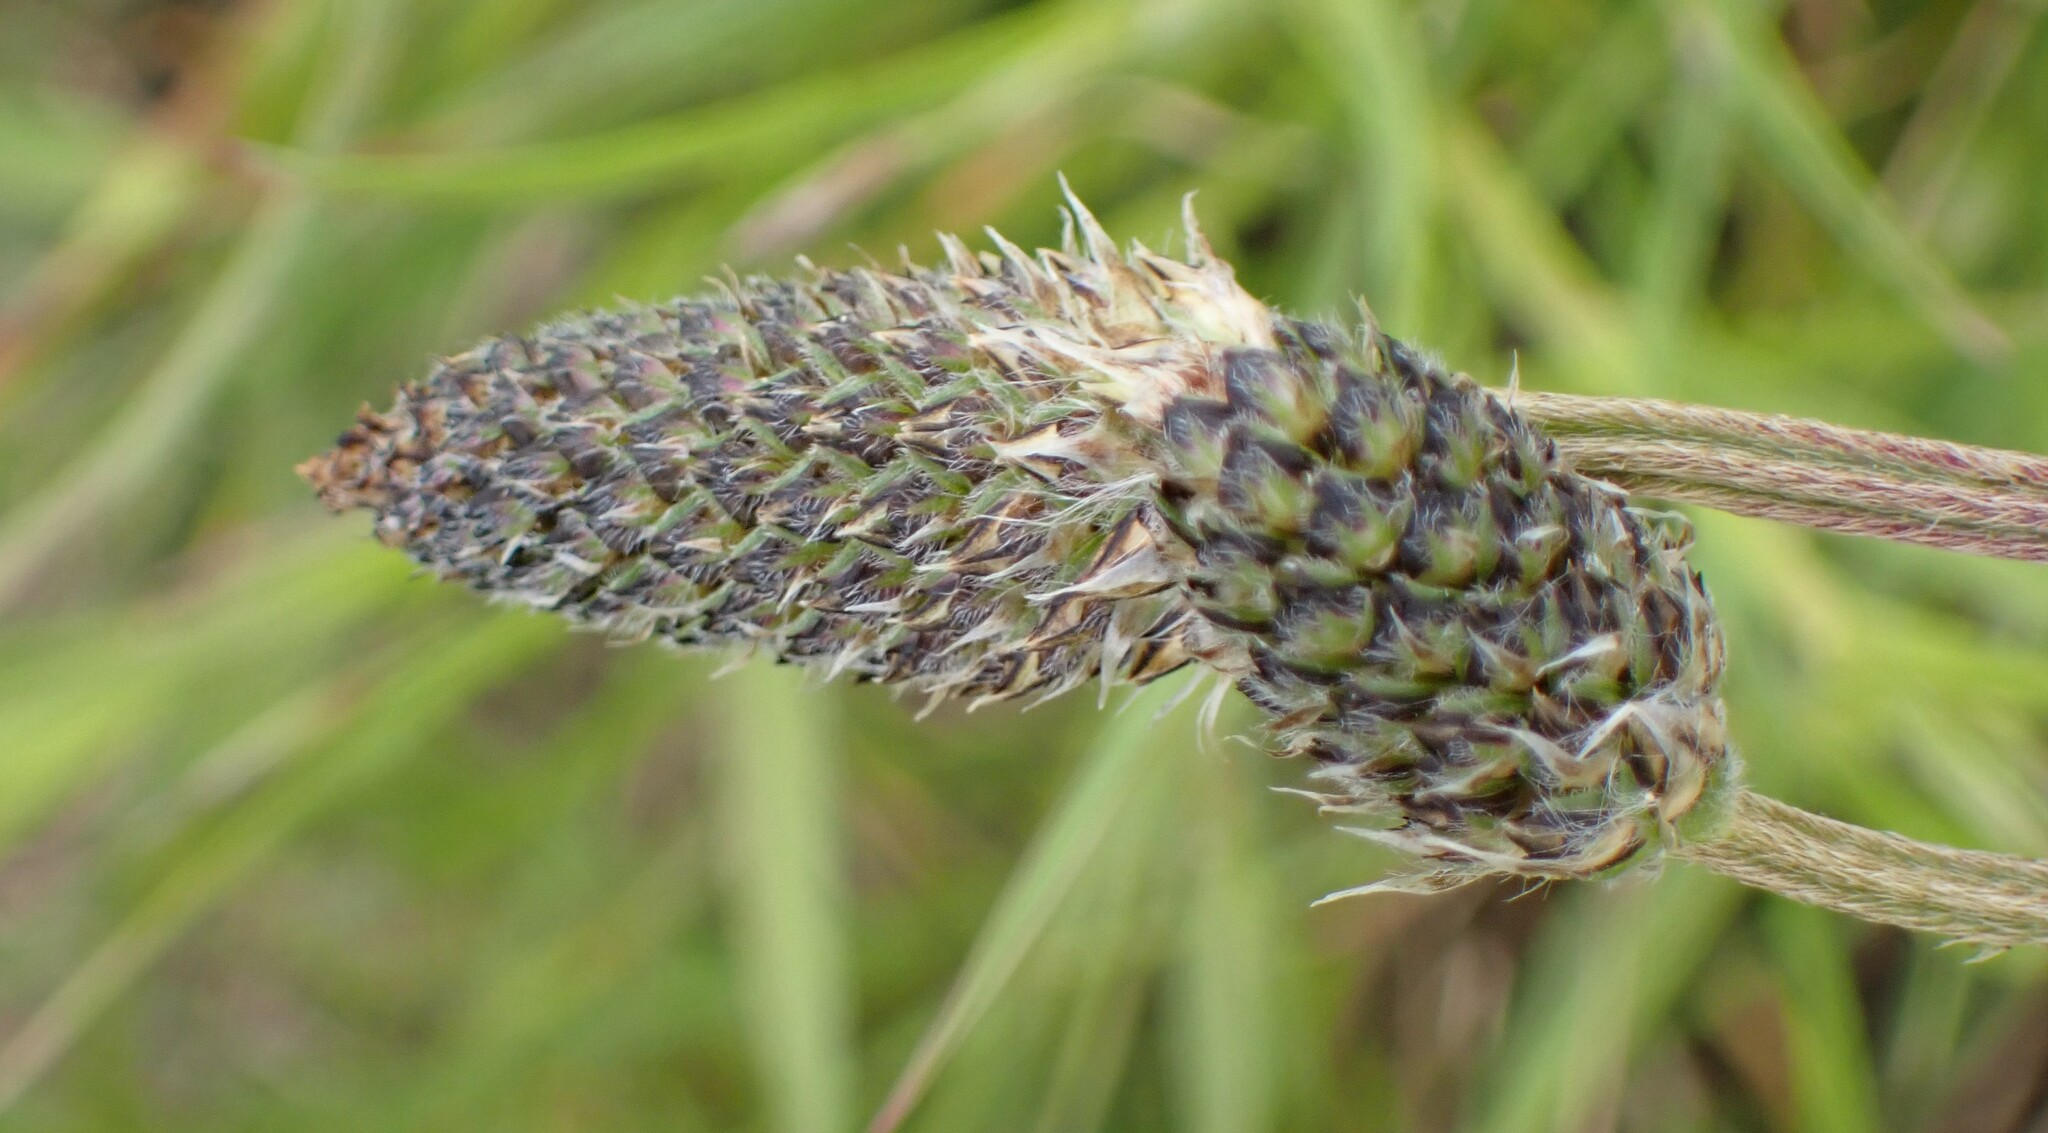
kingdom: Plantae
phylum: Tracheophyta
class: Magnoliopsida
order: Lamiales
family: Plantaginaceae
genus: Plantago
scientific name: Plantago lanceolata
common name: Ribwort plantain
